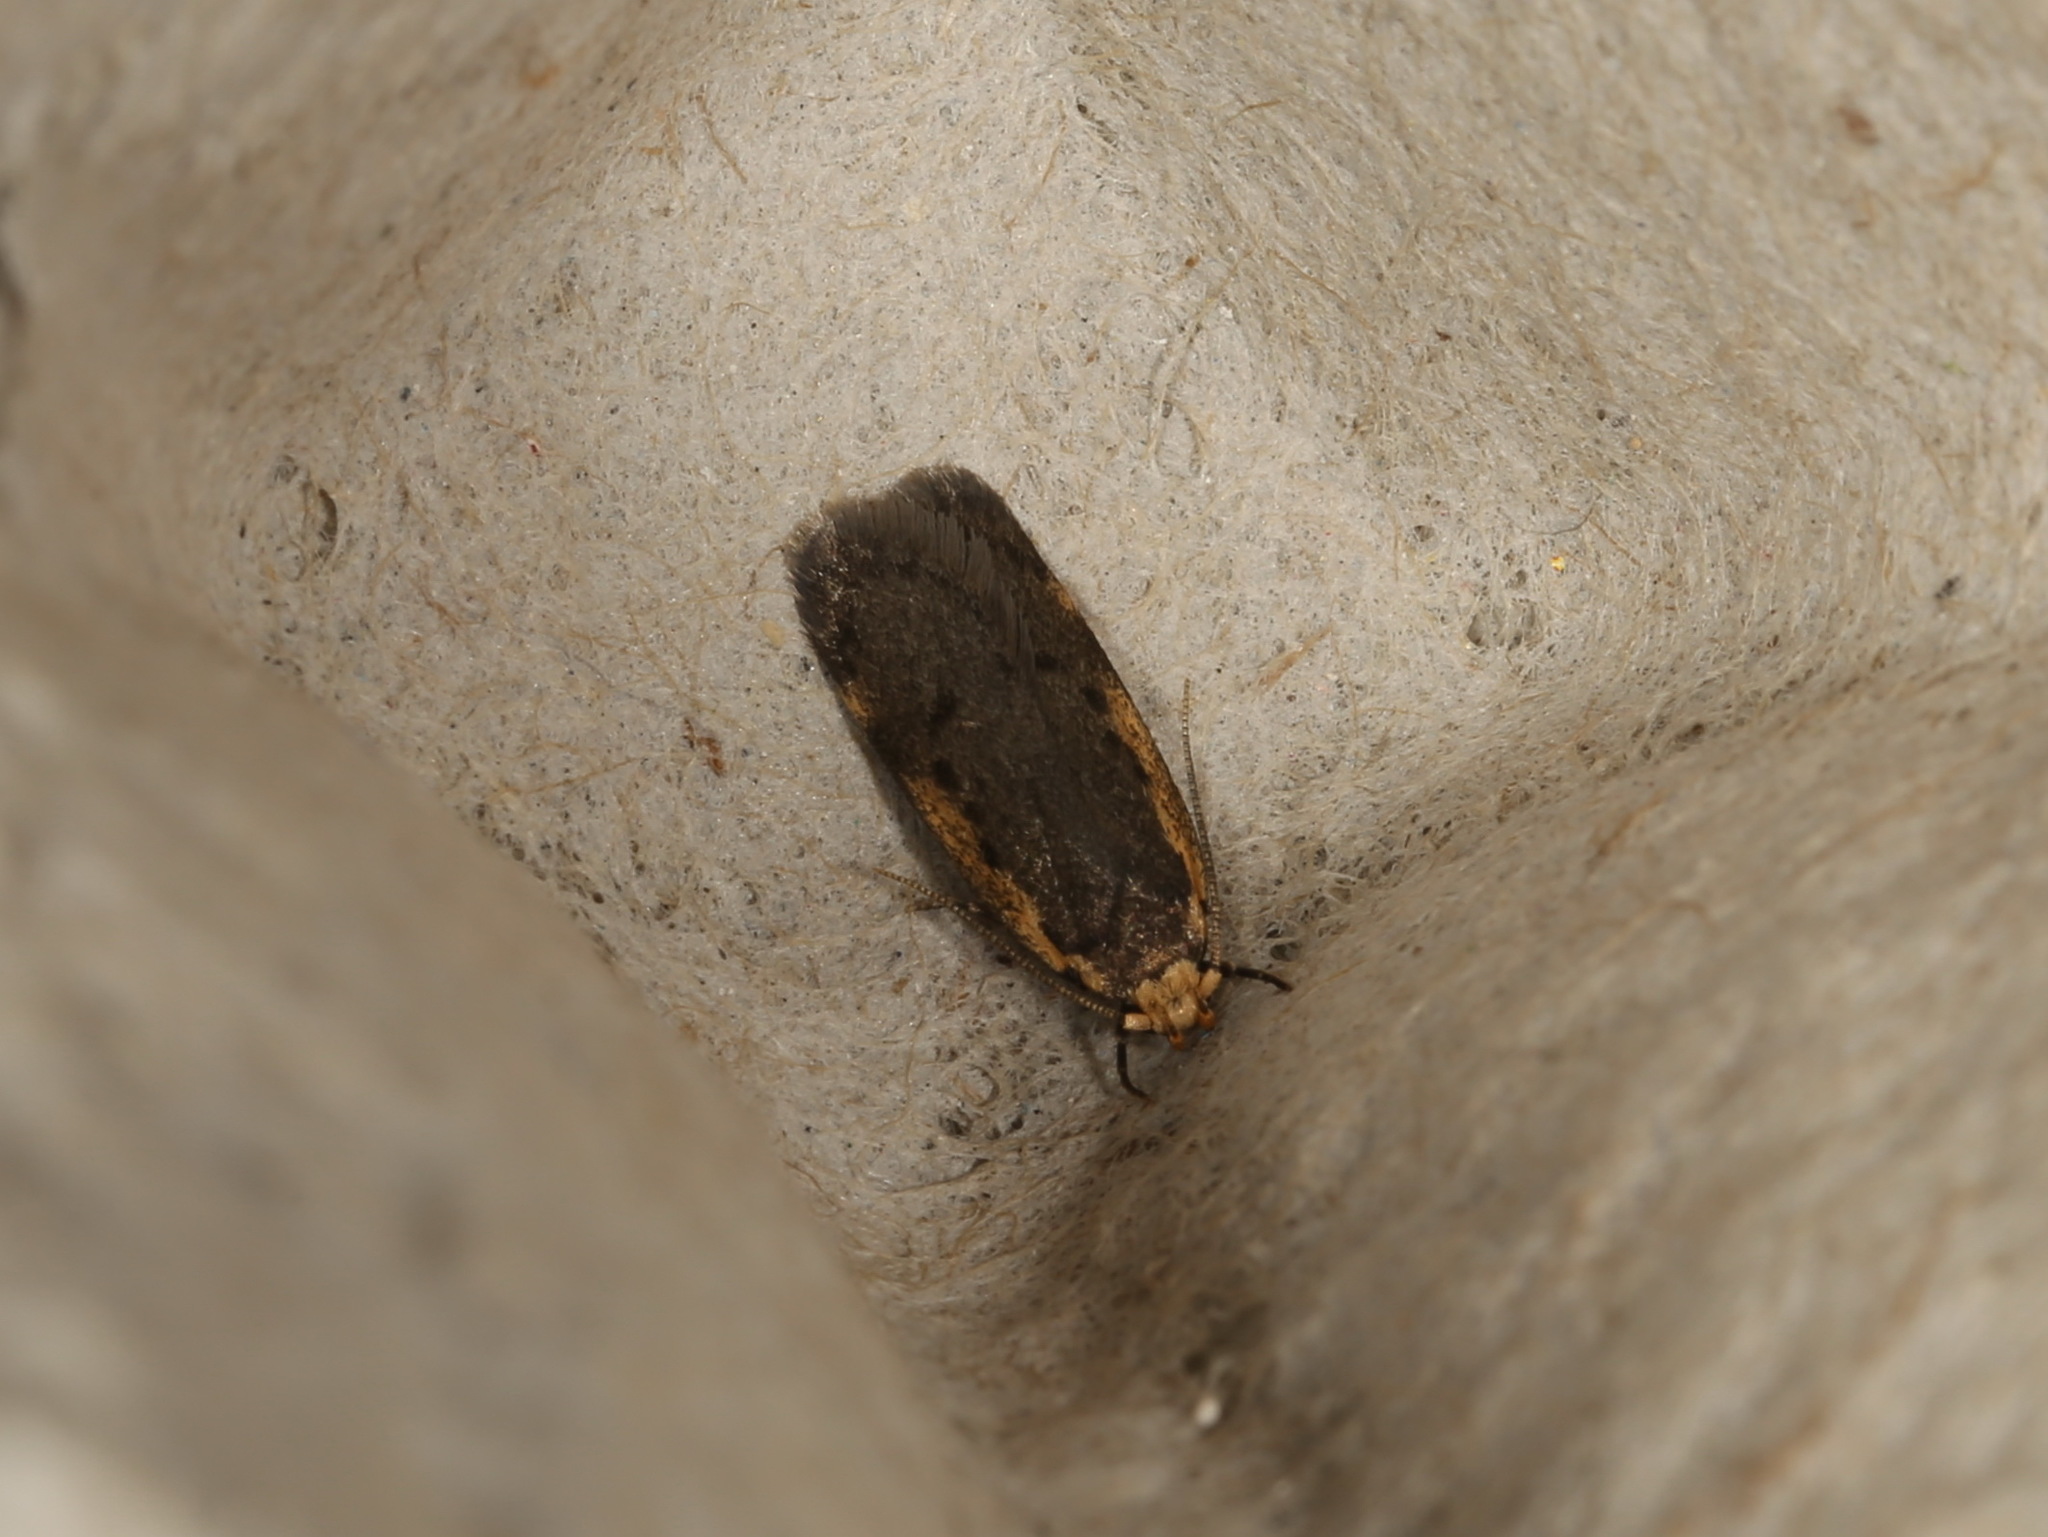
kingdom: Animalia
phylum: Arthropoda
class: Insecta
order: Lepidoptera
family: Oecophoridae
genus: Hoplostega
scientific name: Hoplostega ochroma
